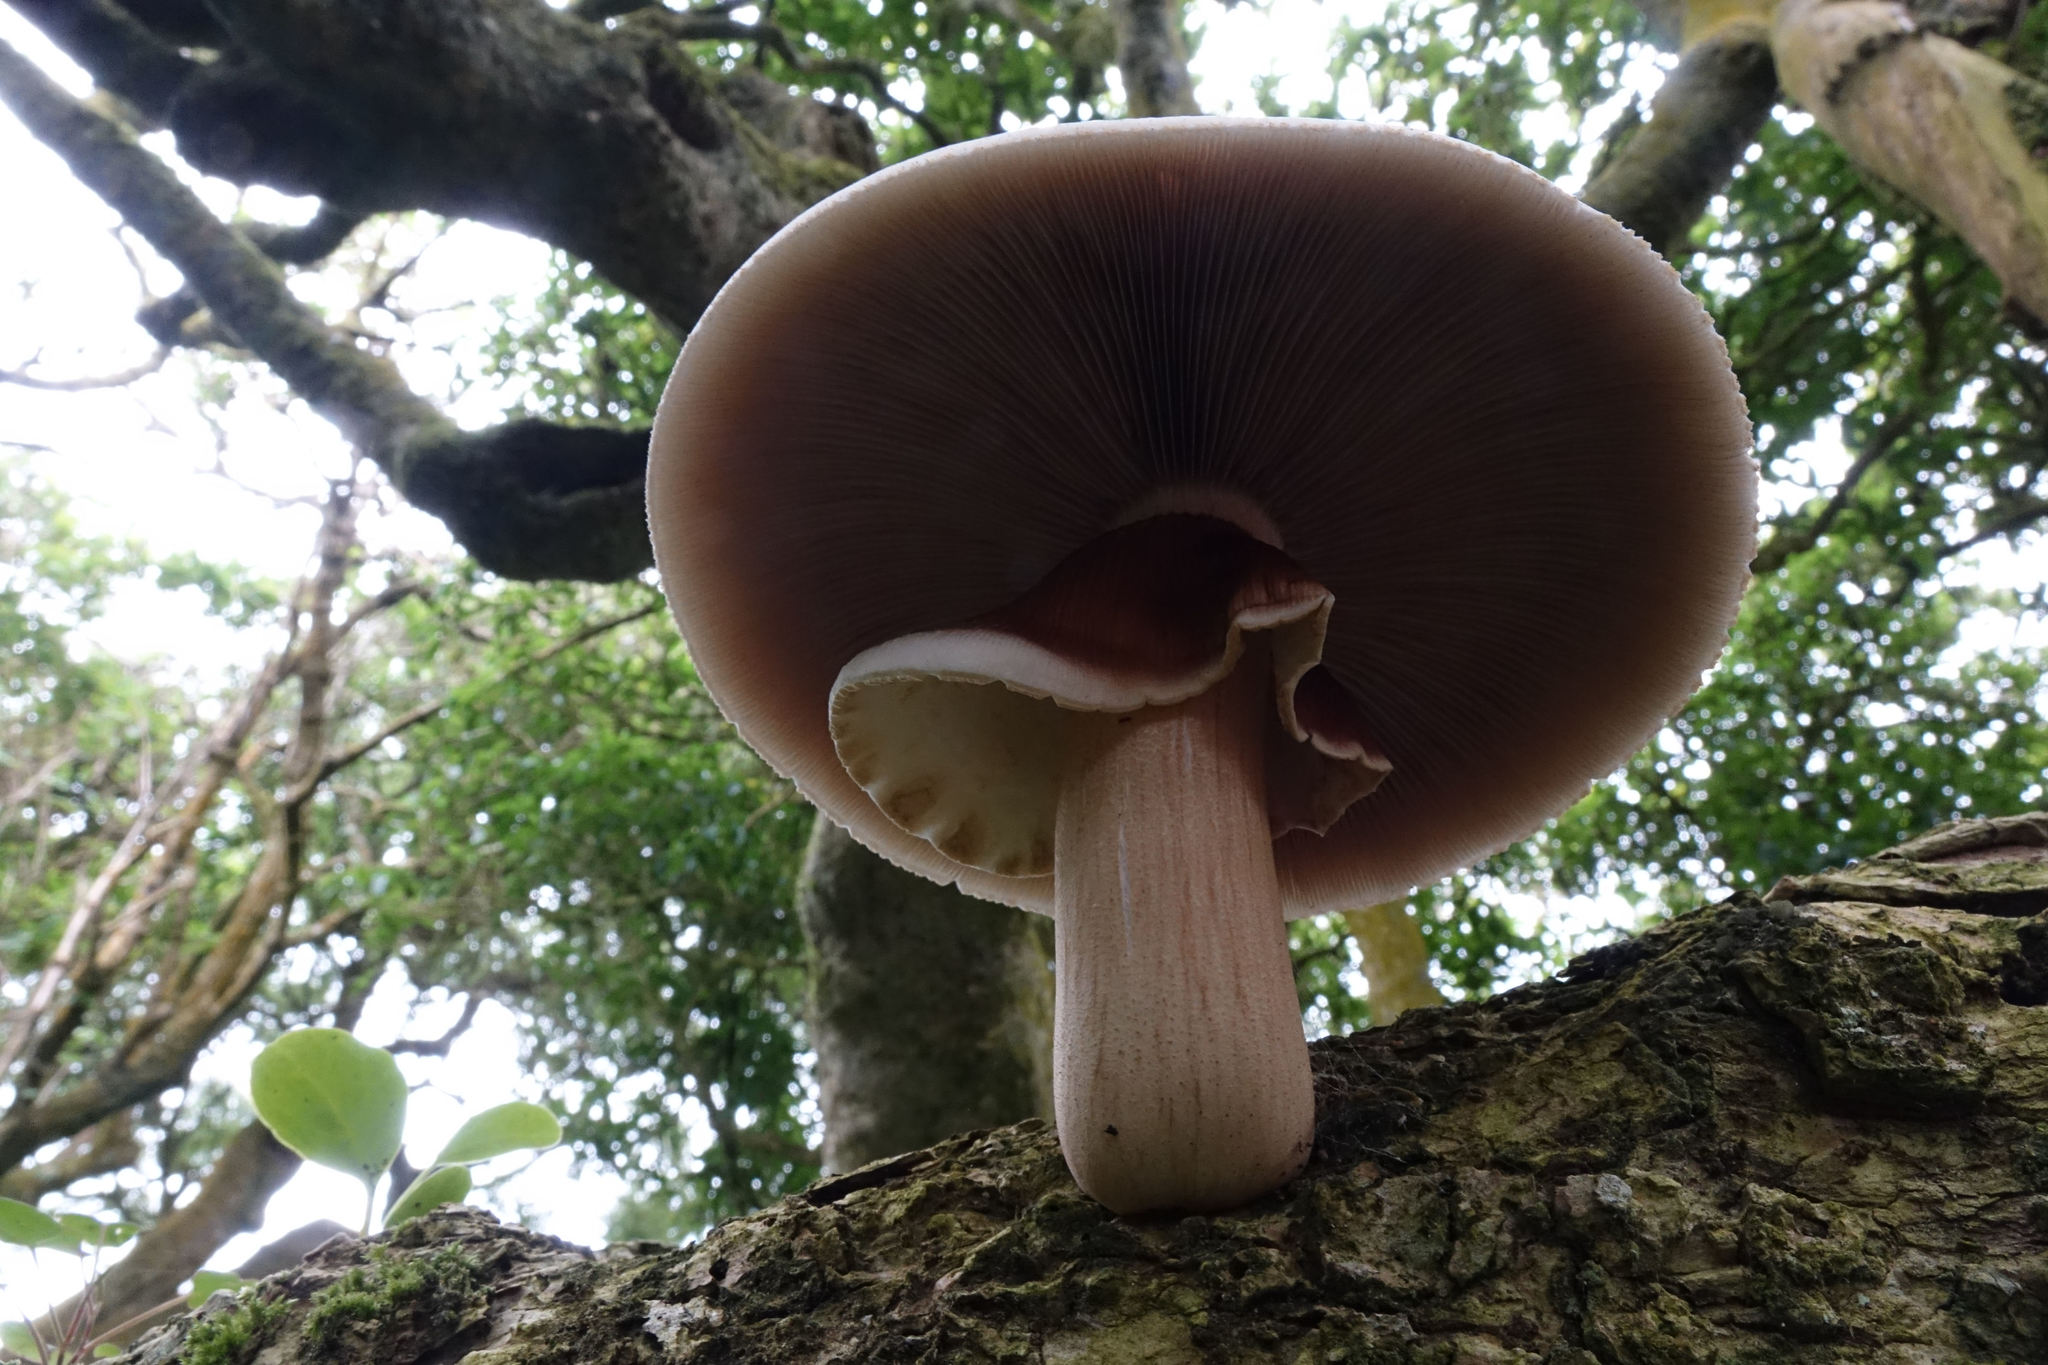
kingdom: Fungi
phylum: Basidiomycota
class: Agaricomycetes
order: Agaricales
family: Tubariaceae
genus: Cyclocybe
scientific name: Cyclocybe parasitica
